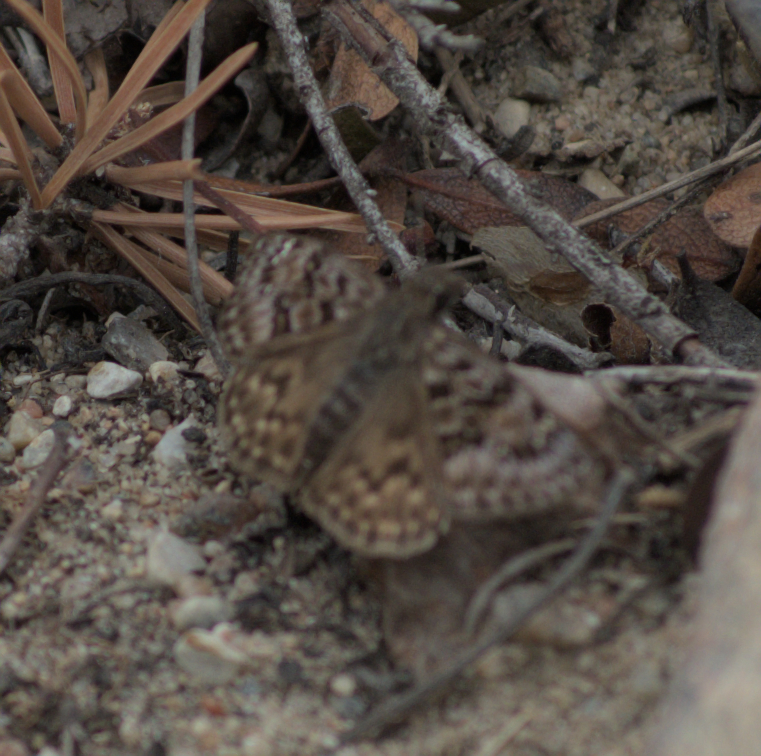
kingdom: Animalia
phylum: Arthropoda
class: Insecta
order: Lepidoptera
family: Hesperiidae
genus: Erynnis
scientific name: Erynnis martialis
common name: Mottled duskywing
